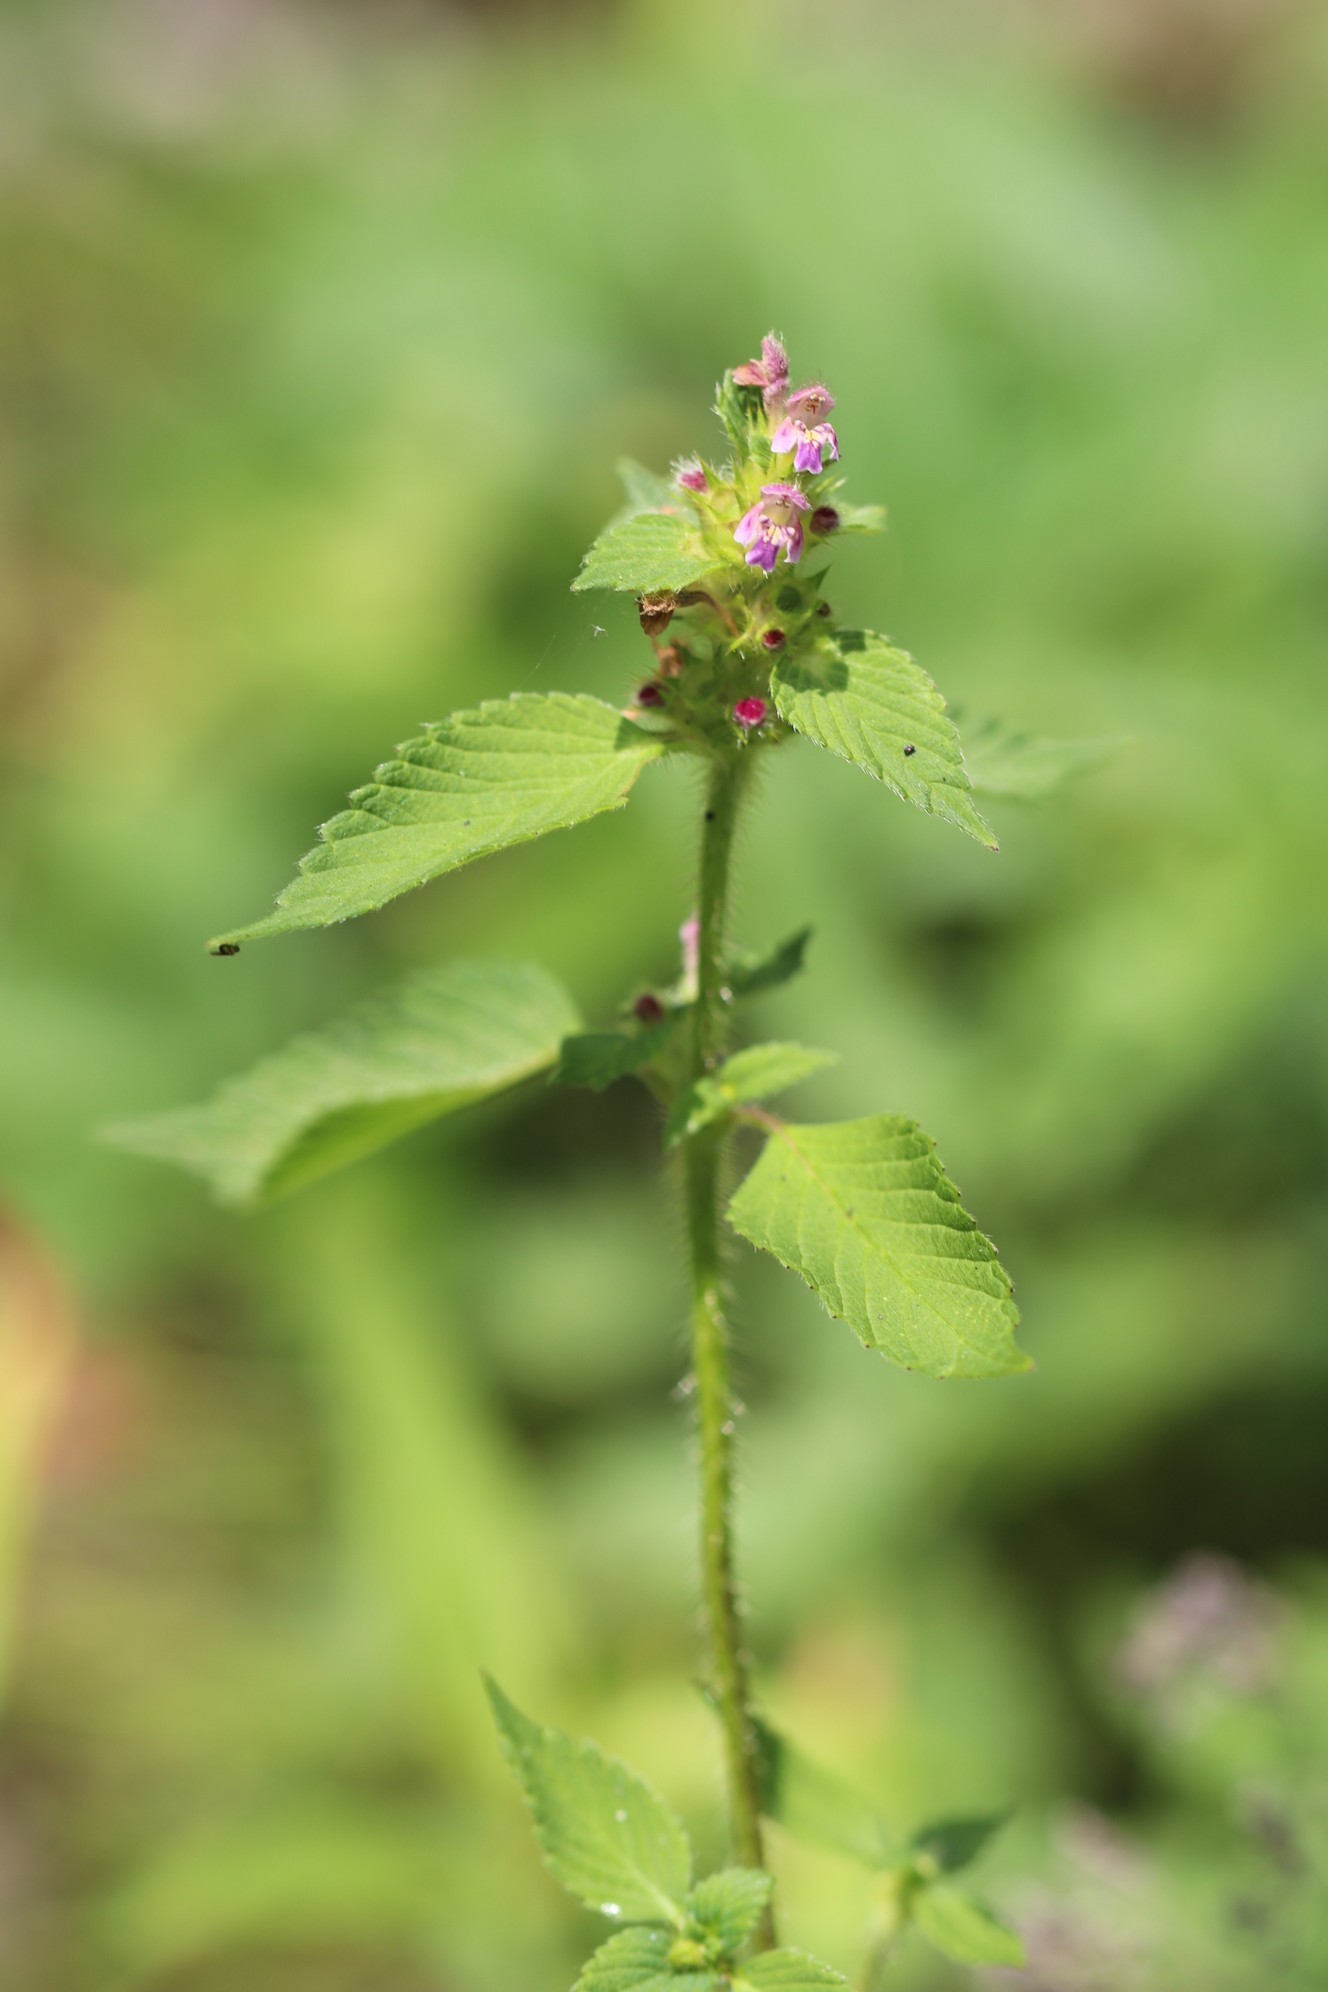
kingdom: Plantae
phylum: Tracheophyta
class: Magnoliopsida
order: Lamiales
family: Lamiaceae
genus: Galeopsis
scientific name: Galeopsis bifida
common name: Bifid hemp-nettle
